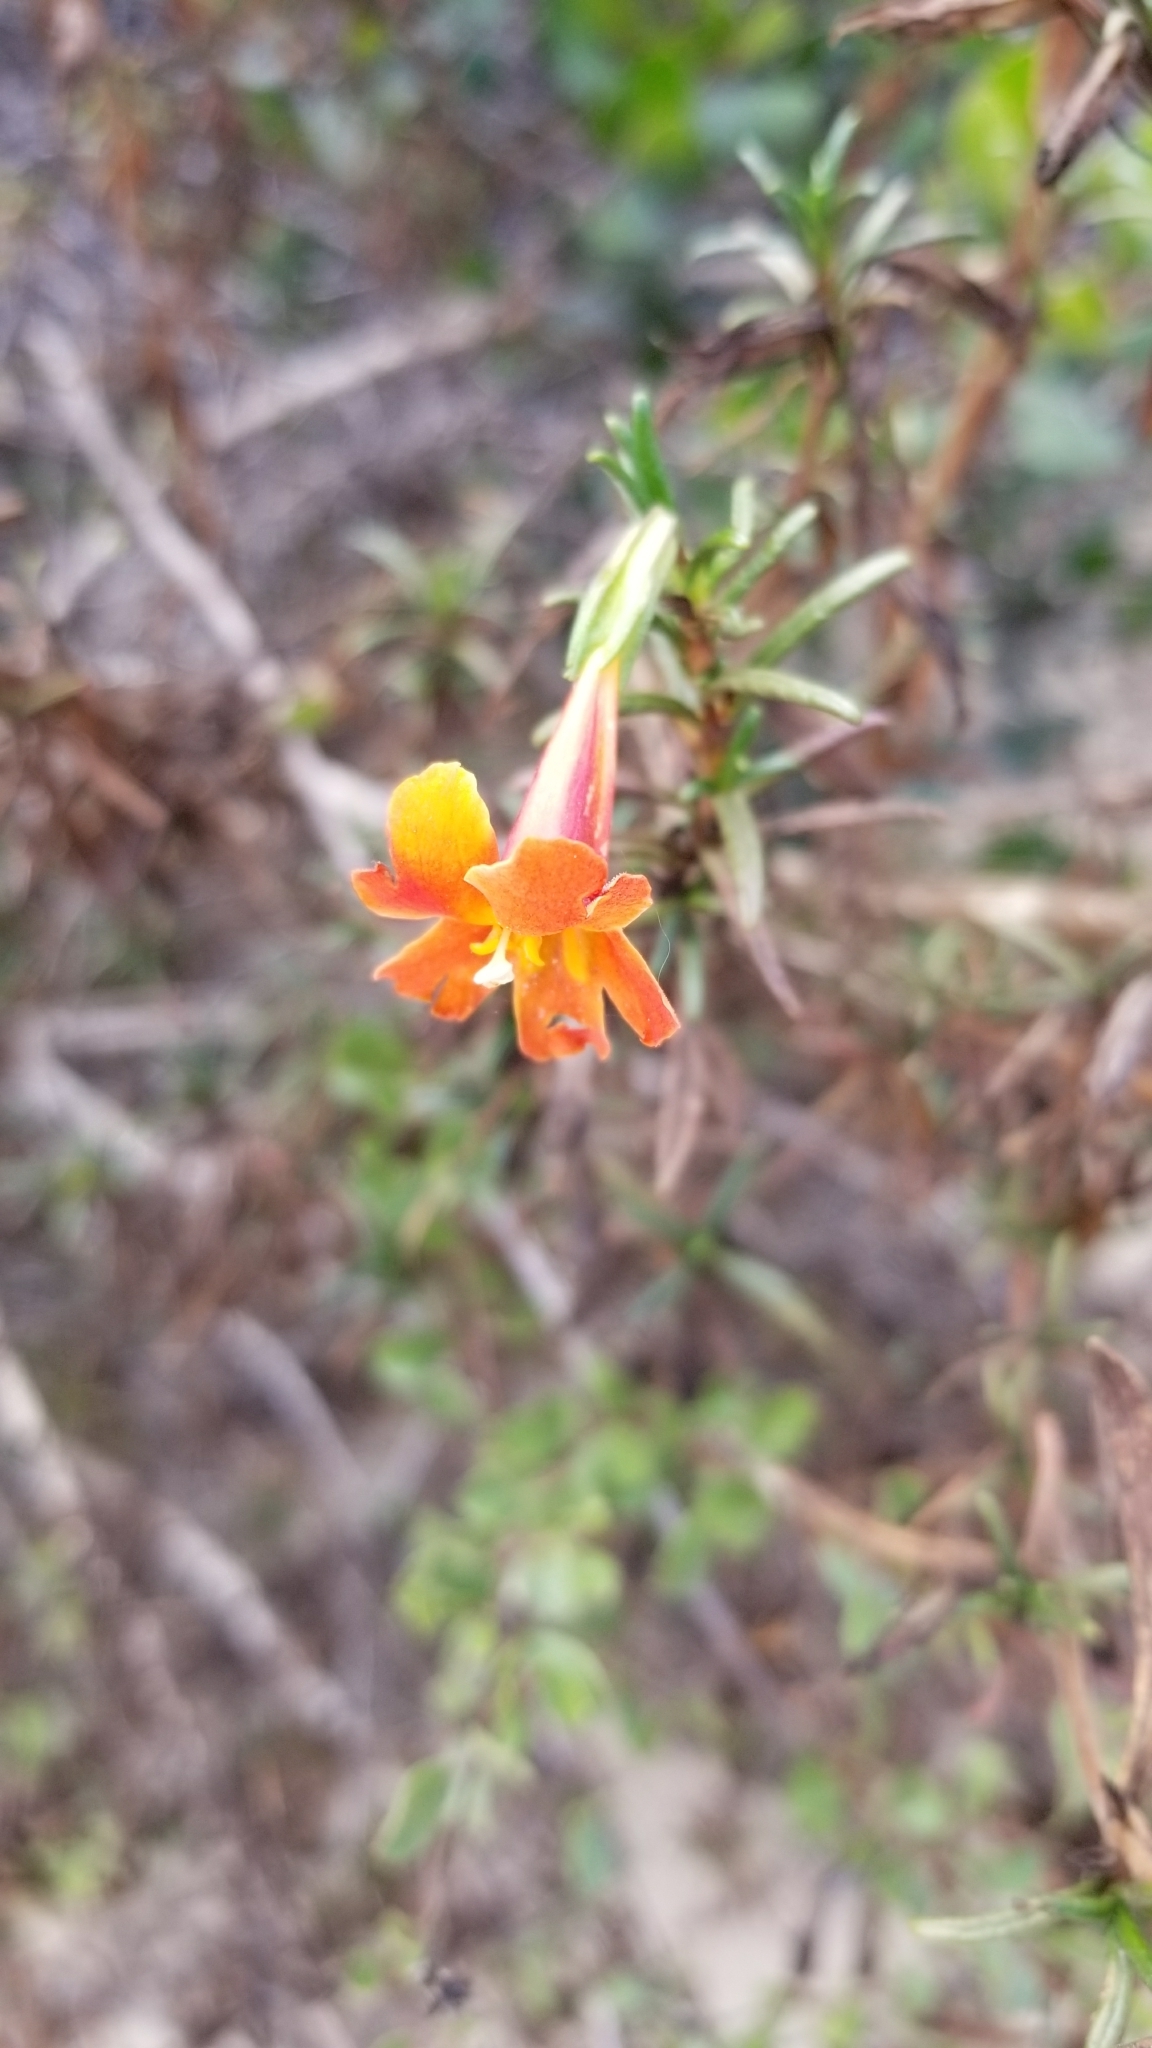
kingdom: Plantae
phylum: Tracheophyta
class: Magnoliopsida
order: Lamiales
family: Phrymaceae
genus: Diplacus
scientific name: Diplacus australis
